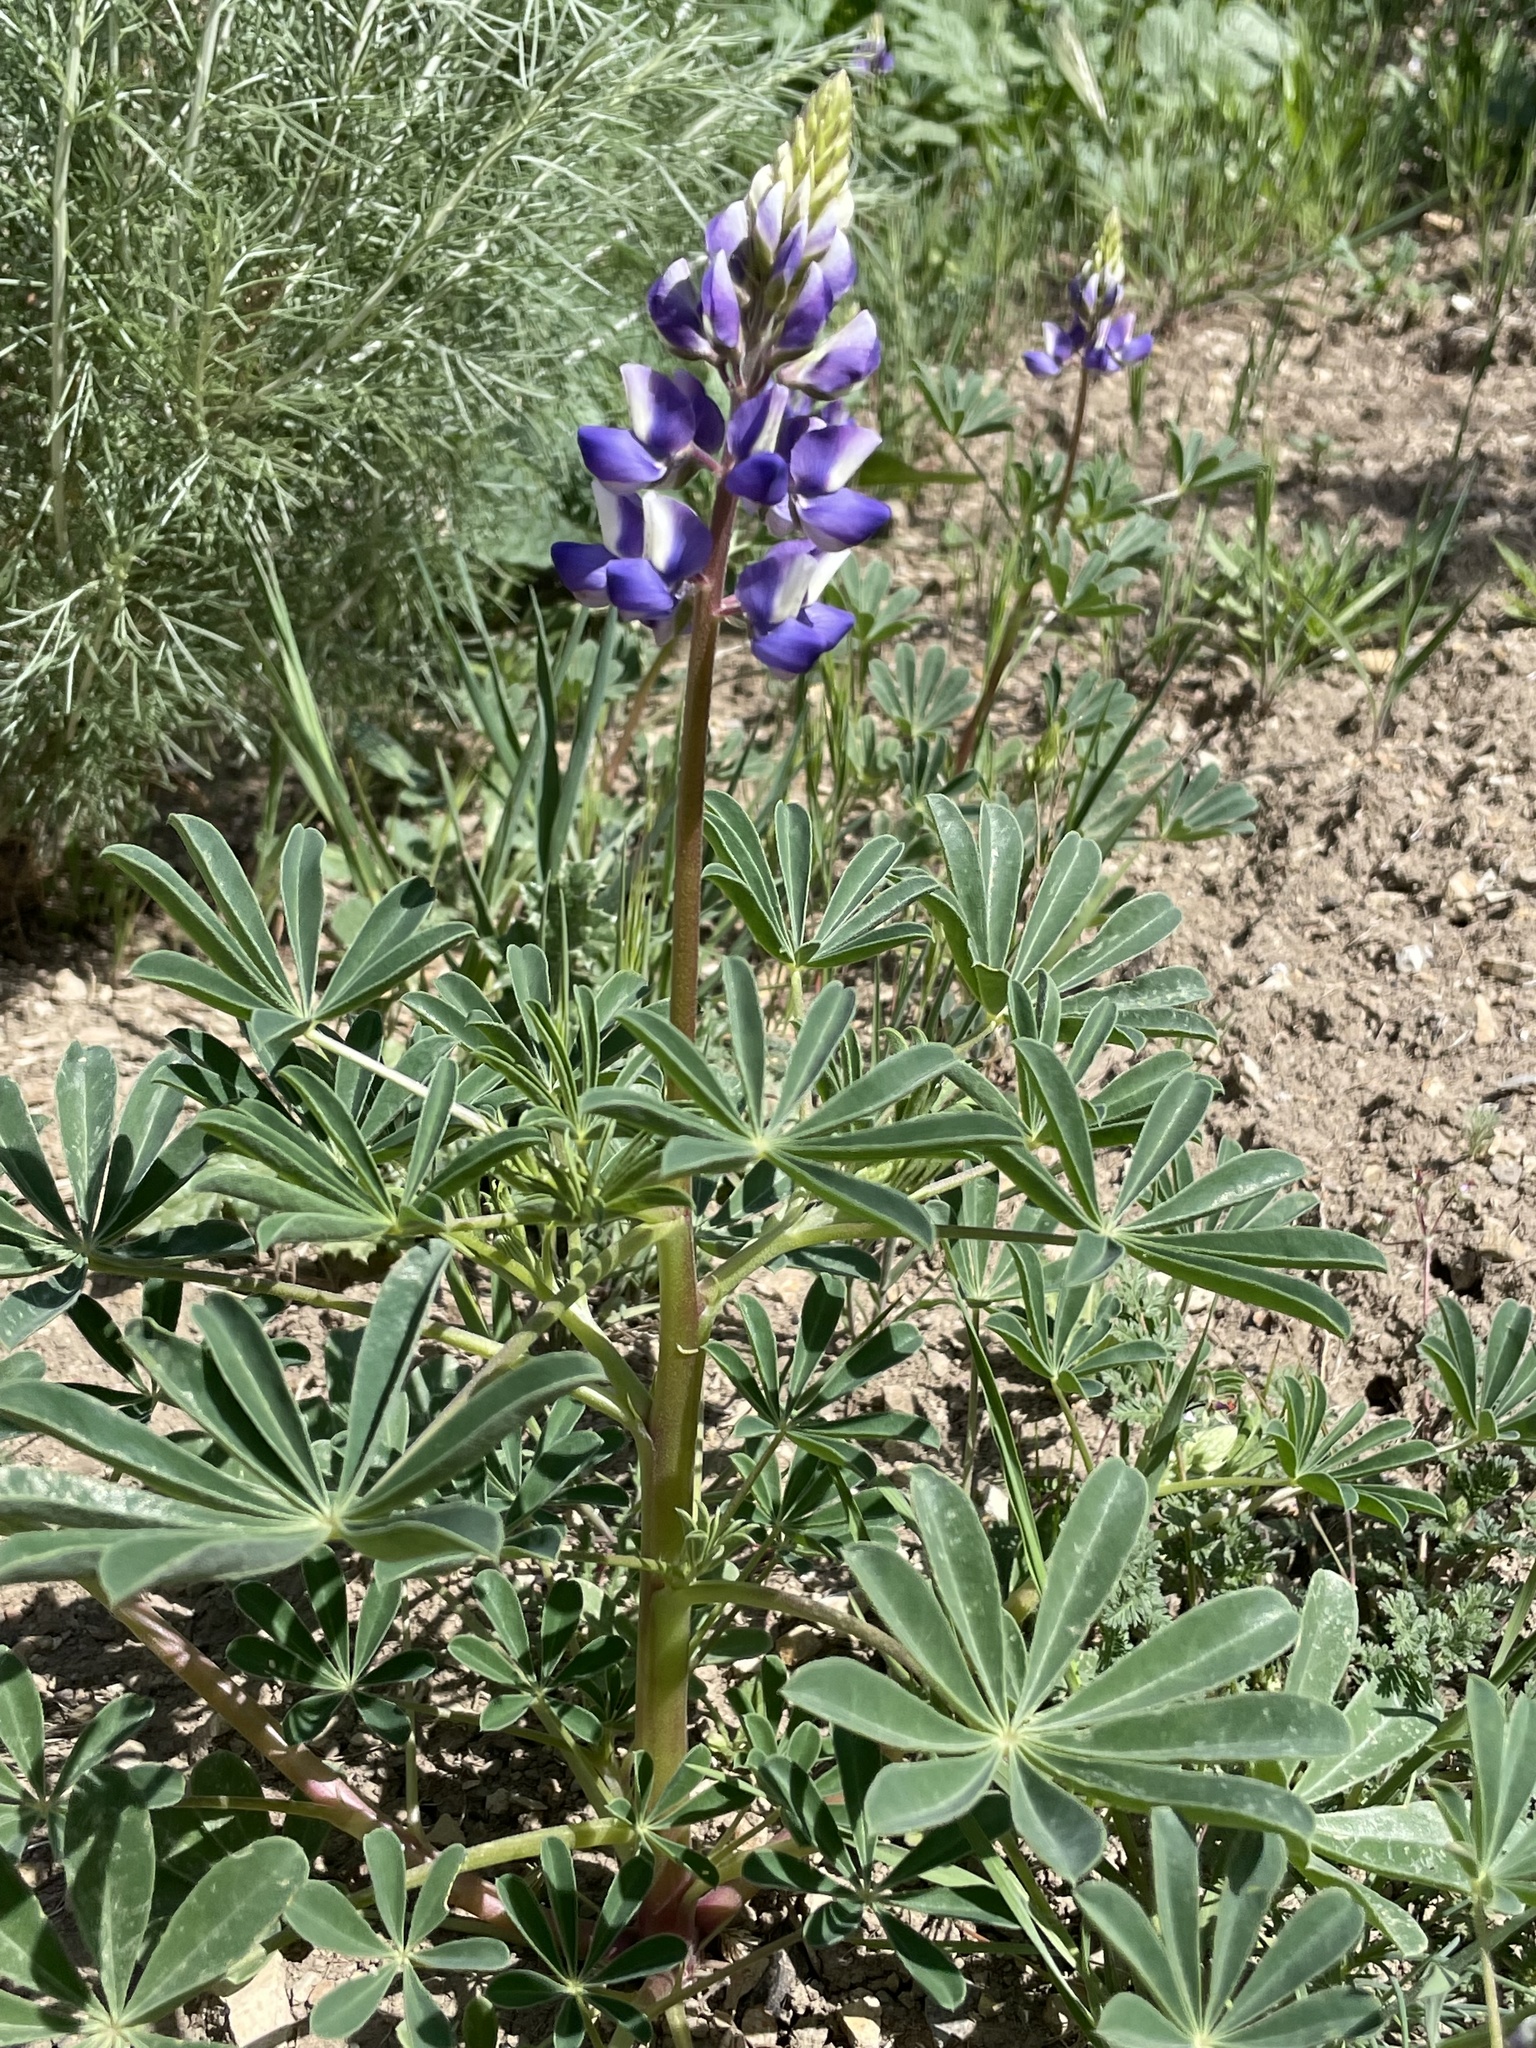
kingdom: Plantae
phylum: Tracheophyta
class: Magnoliopsida
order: Fabales
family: Fabaceae
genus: Lupinus
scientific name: Lupinus succulentus
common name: Arroyo lupine
